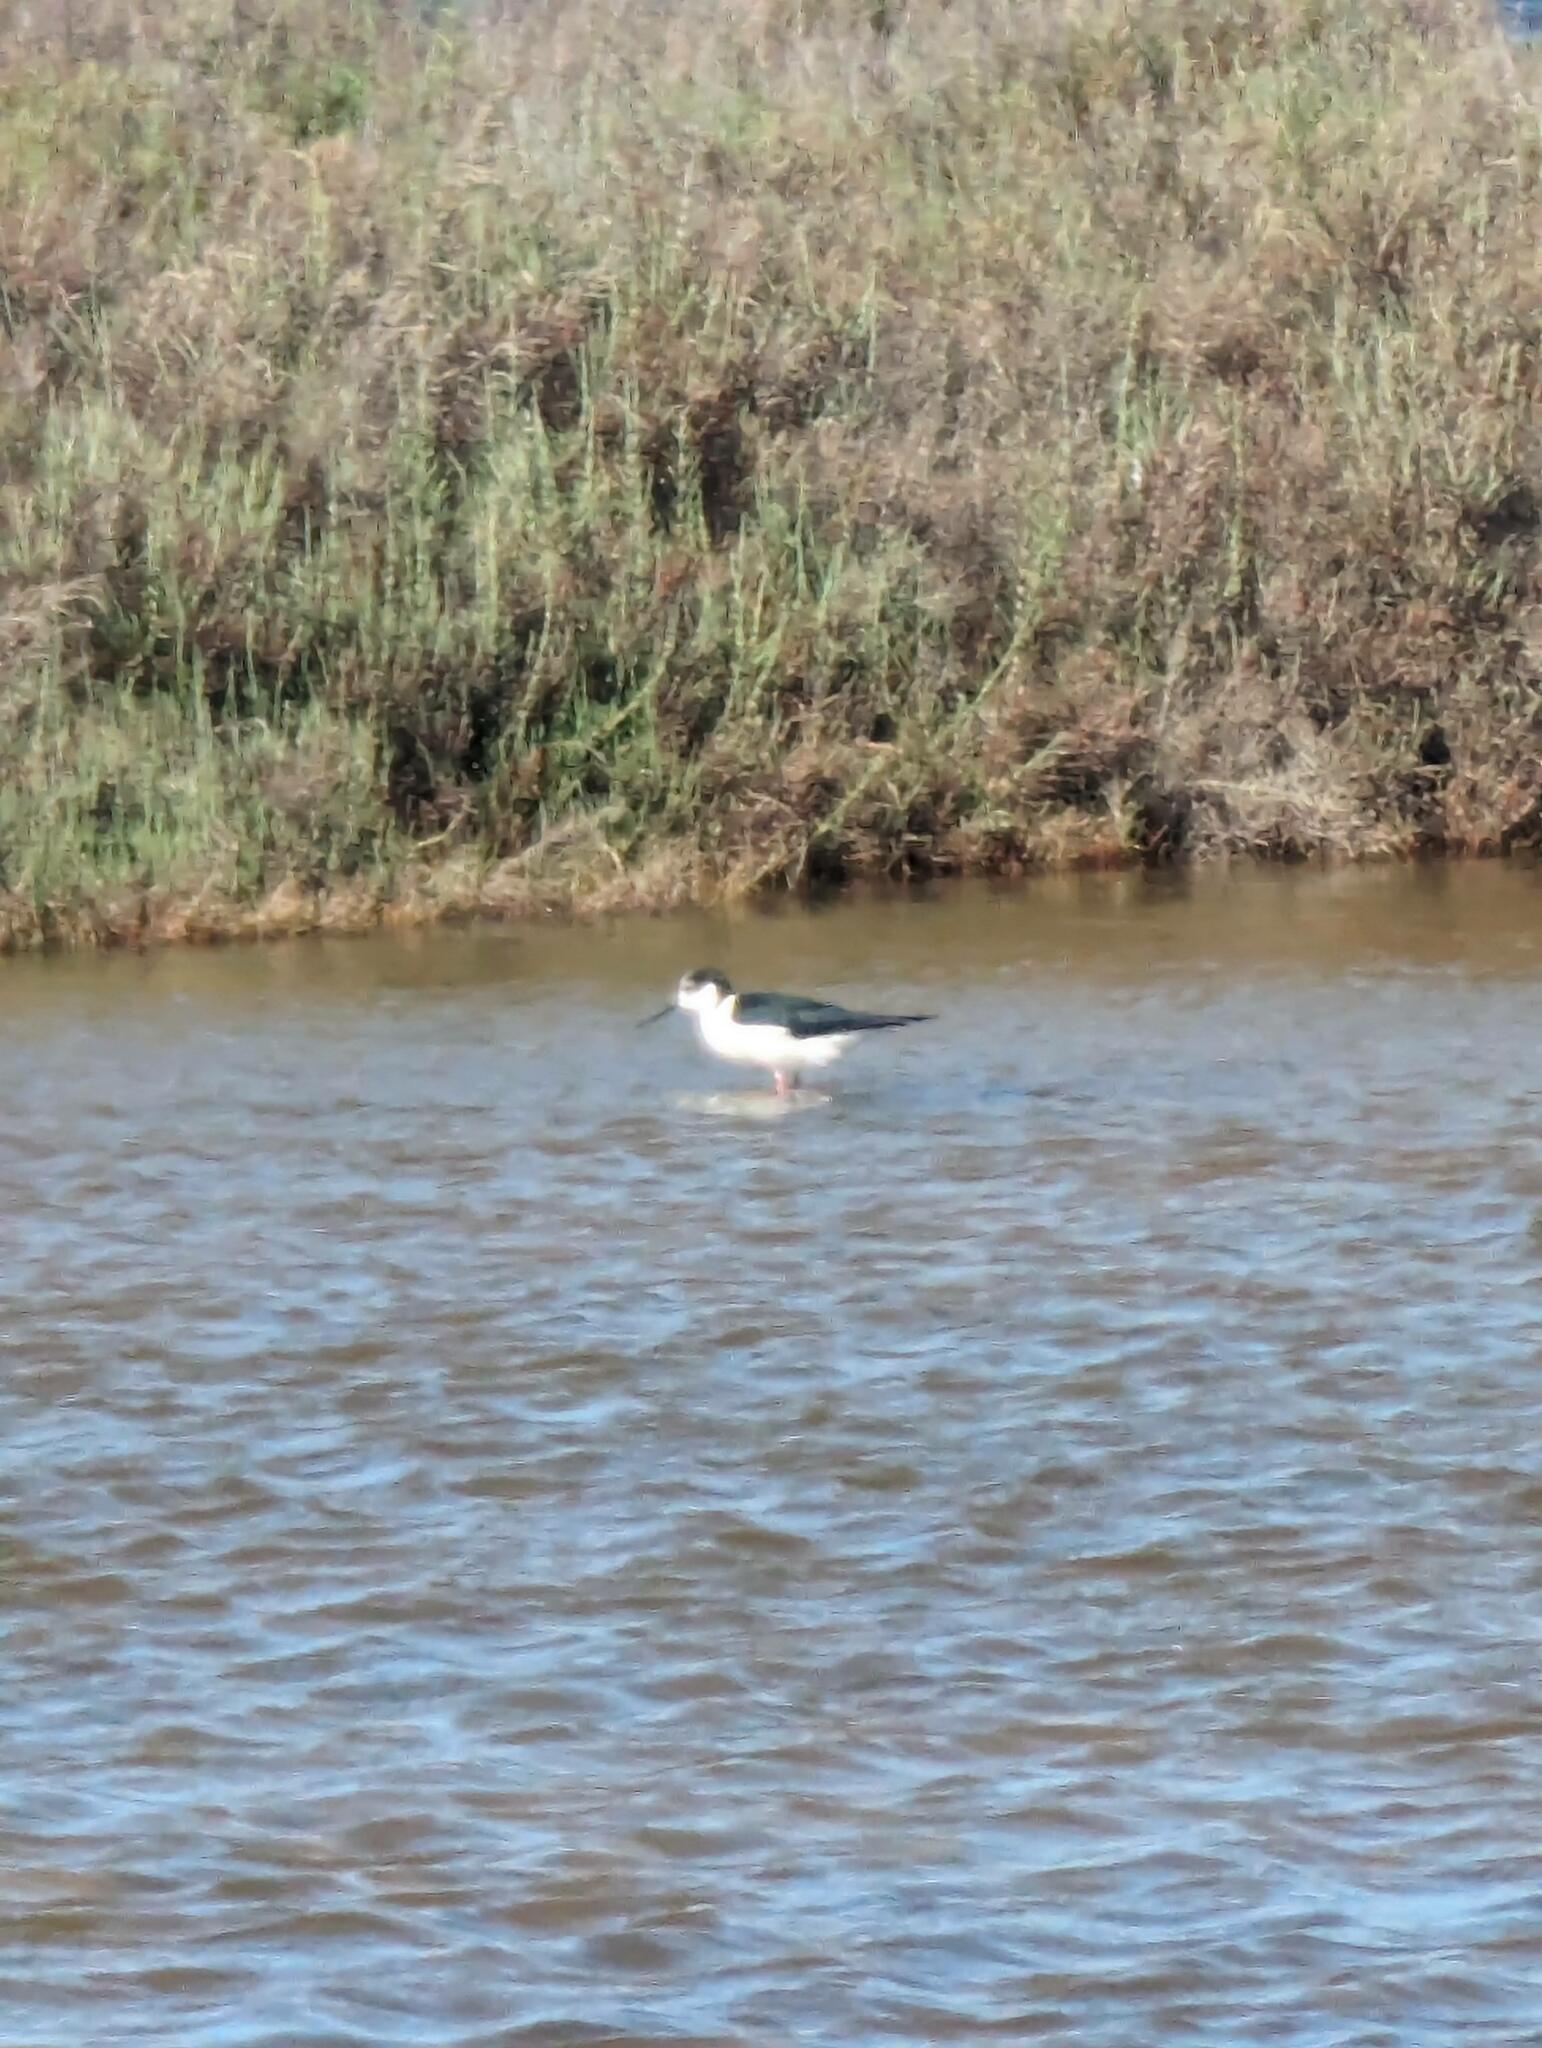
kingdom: Animalia
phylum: Chordata
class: Aves
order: Charadriiformes
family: Recurvirostridae
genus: Himantopus
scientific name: Himantopus himantopus
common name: Black-winged stilt
